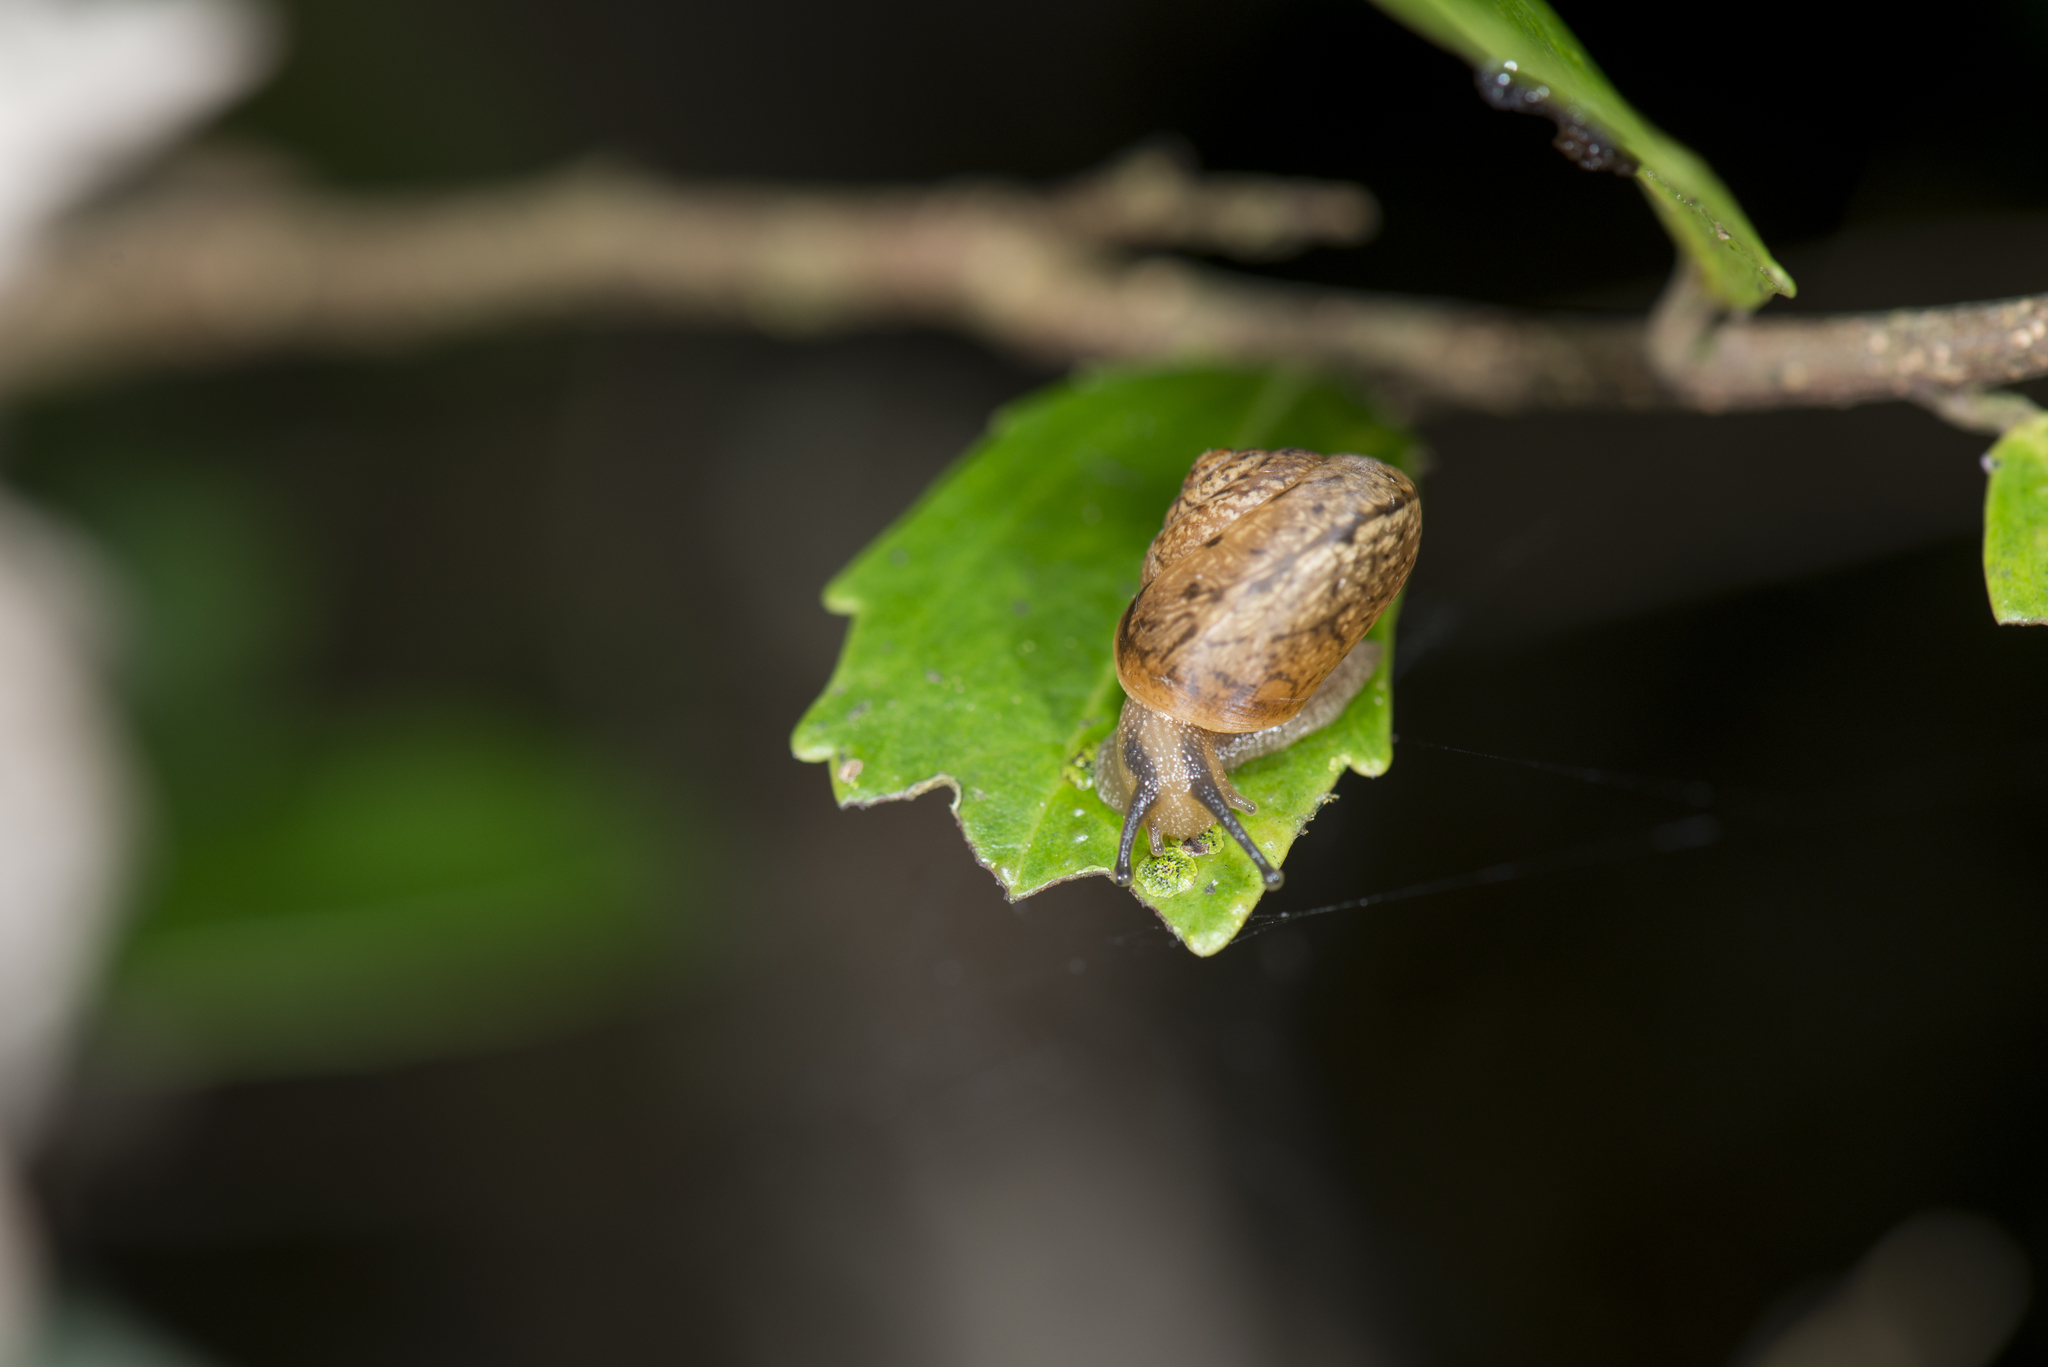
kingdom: Animalia
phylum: Mollusca
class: Gastropoda
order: Stylommatophora
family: Camaenidae
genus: Bradybaena
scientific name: Bradybaena similaris
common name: Asian trampsnail
